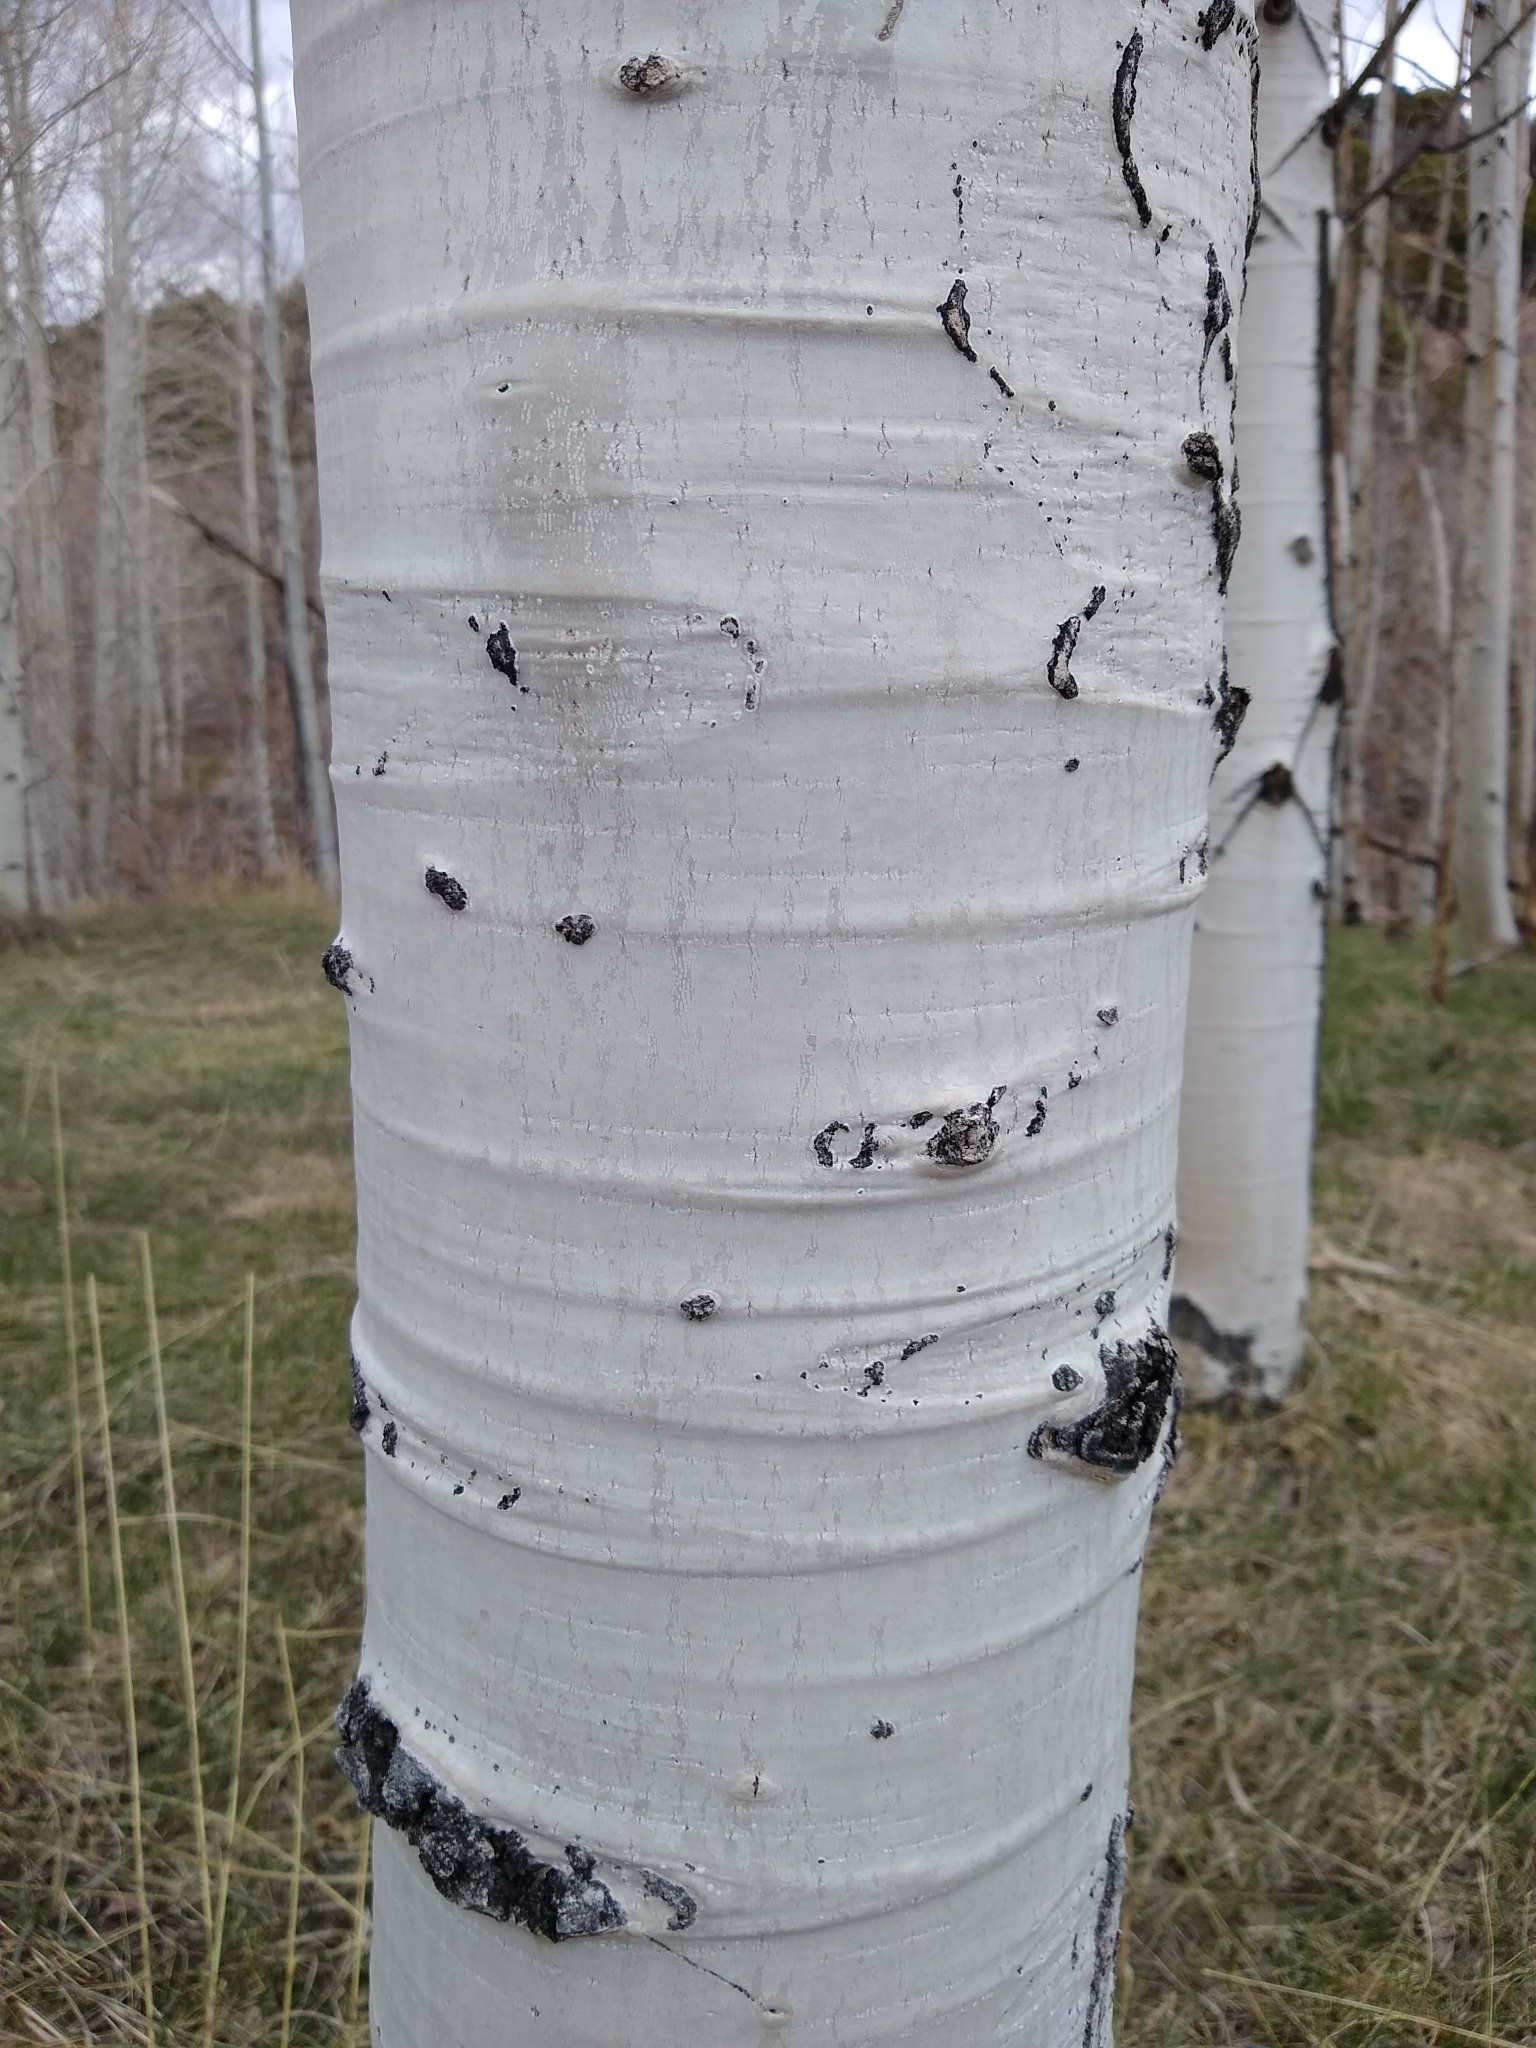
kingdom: Plantae
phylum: Tracheophyta
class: Magnoliopsida
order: Malpighiales
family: Salicaceae
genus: Populus
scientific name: Populus tremuloides
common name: Quaking aspen
